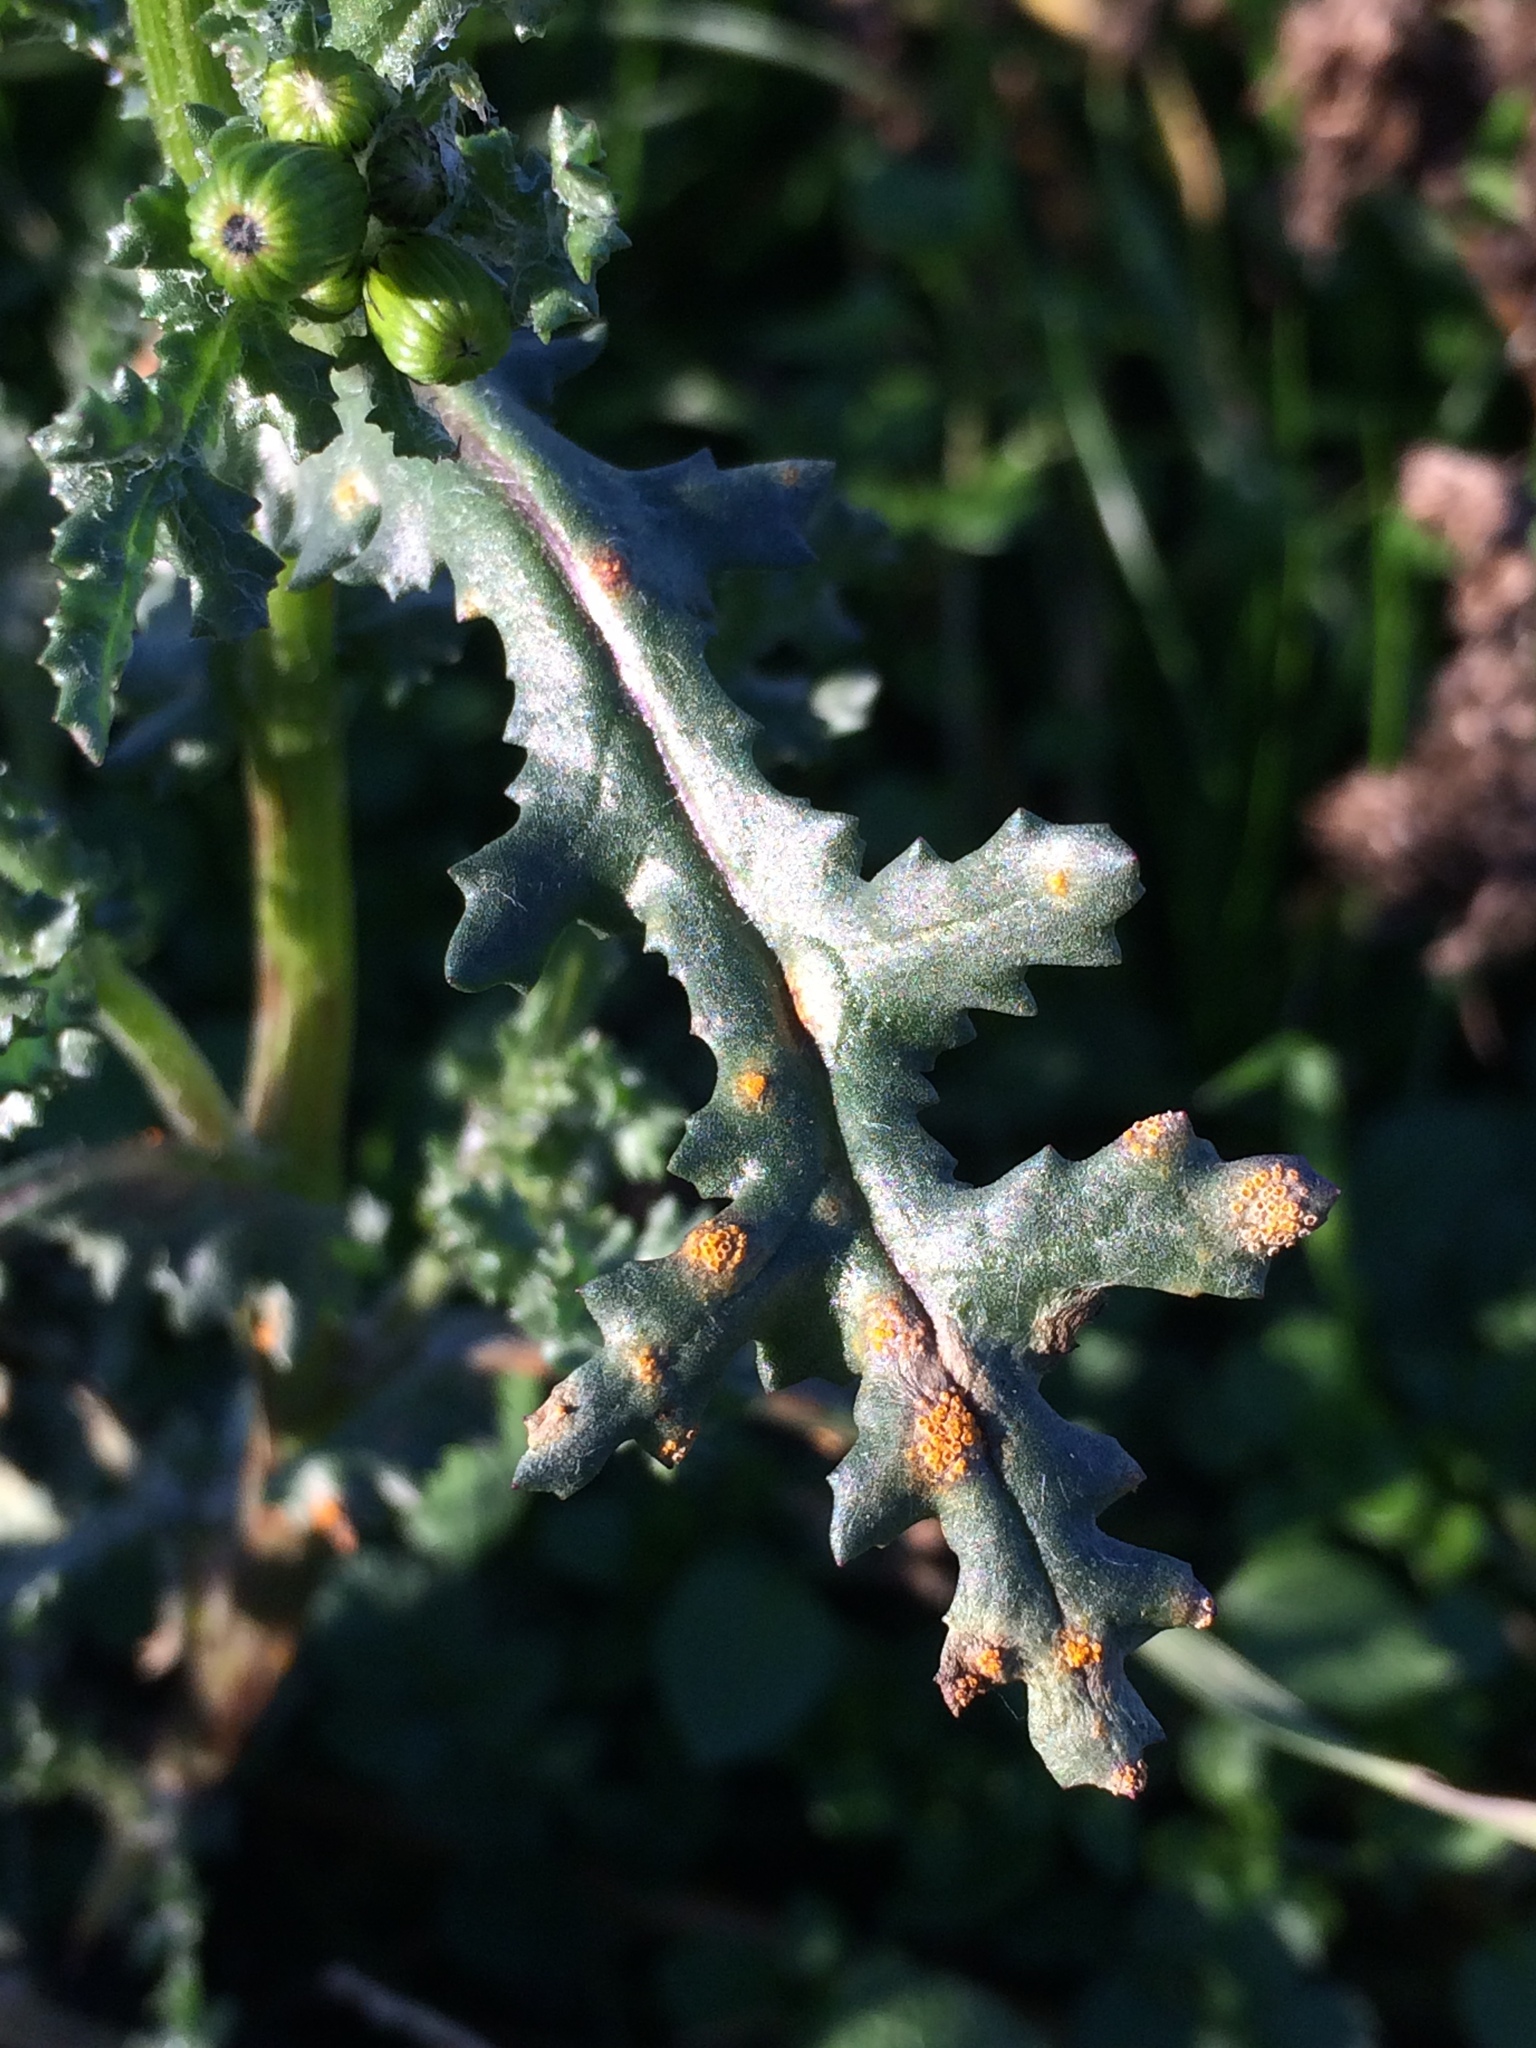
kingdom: Plantae
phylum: Tracheophyta
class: Magnoliopsida
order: Asterales
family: Asteraceae
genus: Senecio
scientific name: Senecio vulgaris
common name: Old-man-in-the-spring
